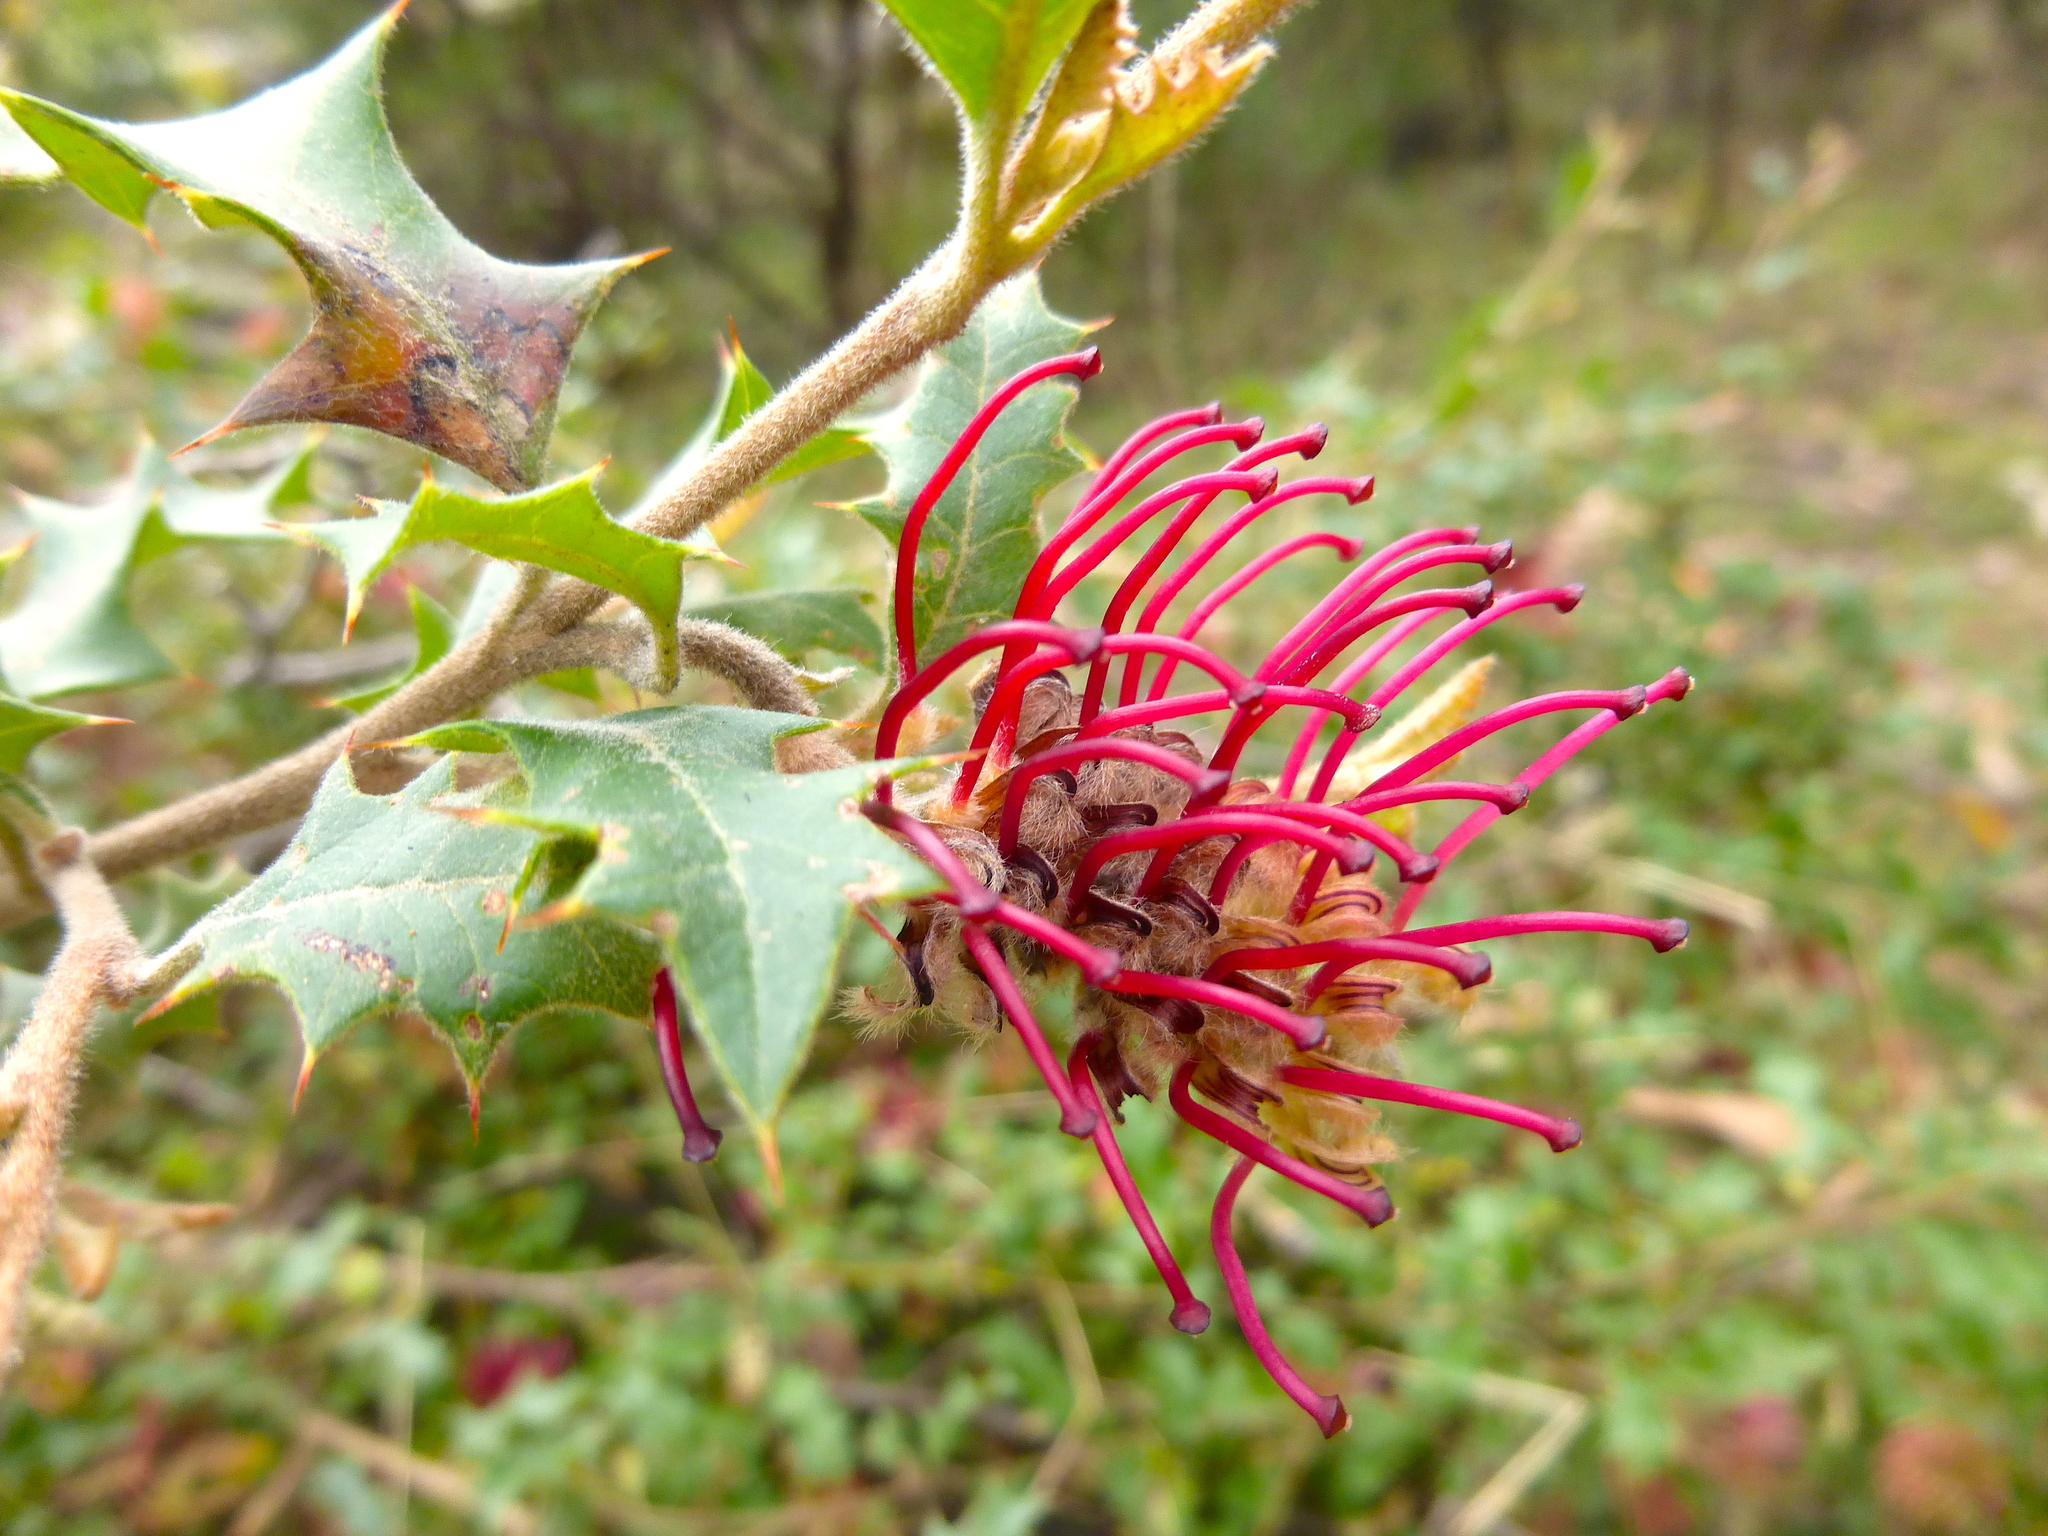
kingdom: Plantae
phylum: Tracheophyta
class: Magnoliopsida
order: Proteales
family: Proteaceae
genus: Grevillea
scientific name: Grevillea aquifolium
